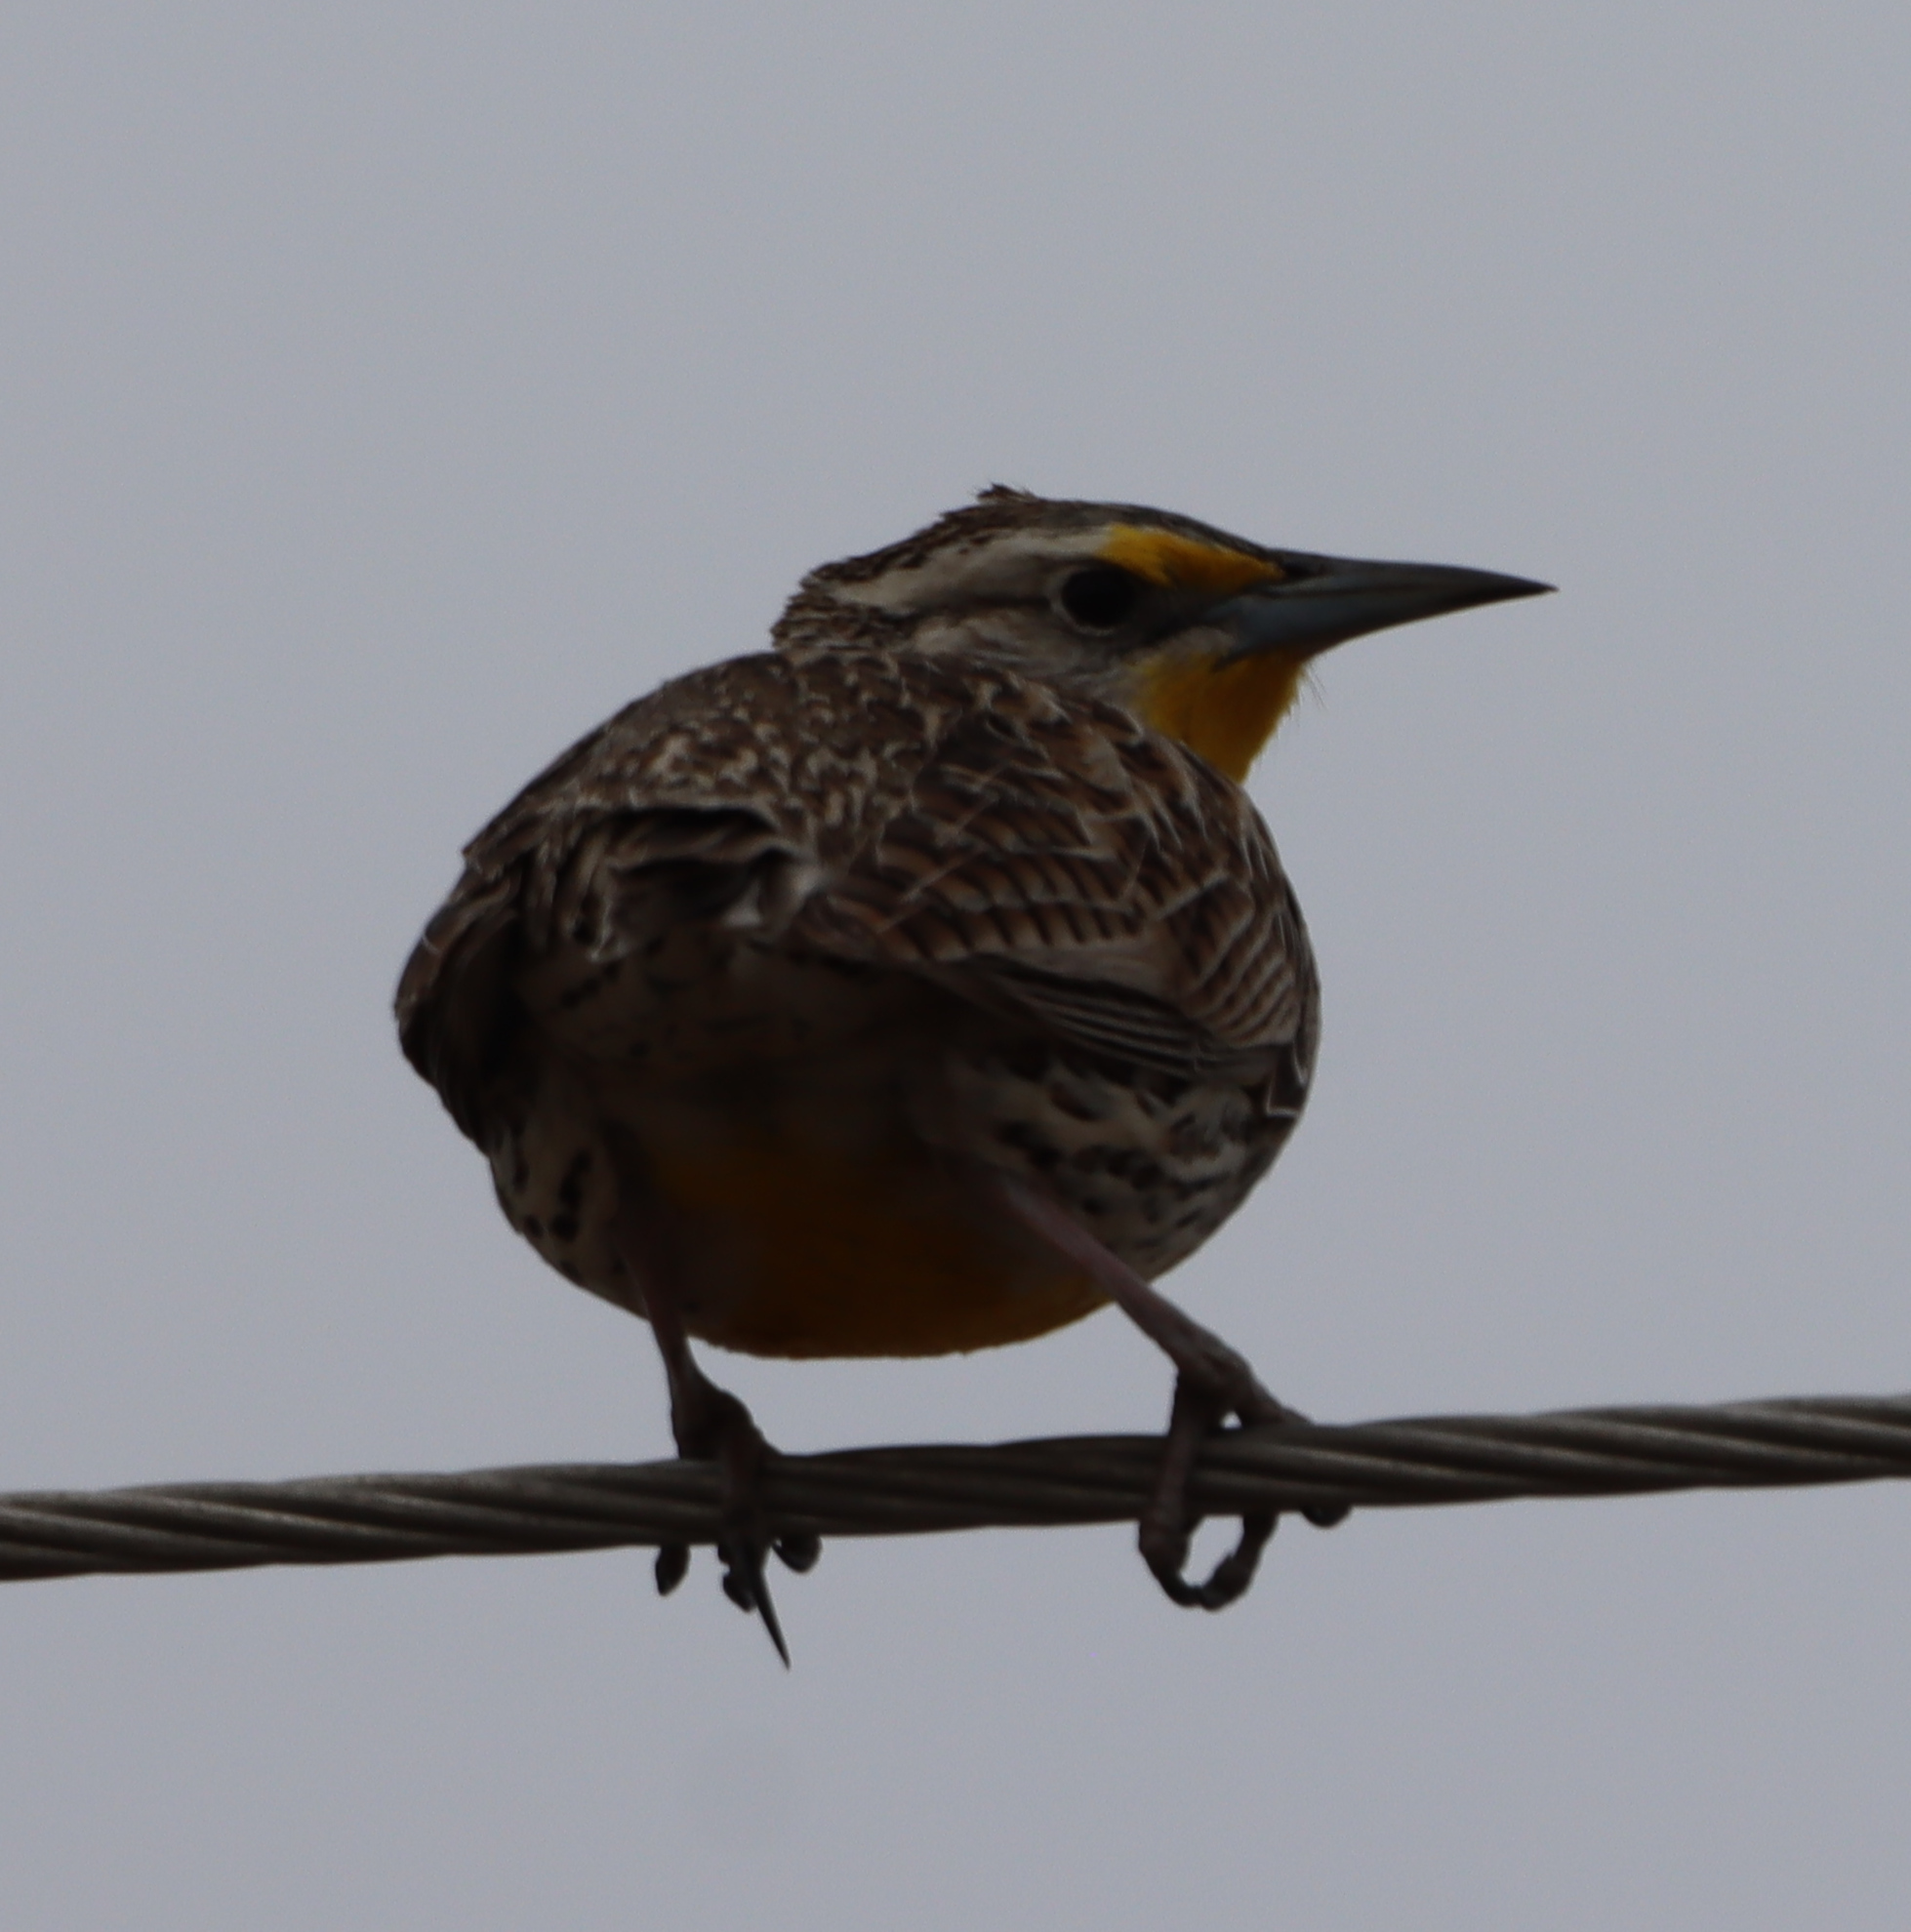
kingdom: Animalia
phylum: Chordata
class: Aves
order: Passeriformes
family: Icteridae
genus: Sturnella
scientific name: Sturnella neglecta
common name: Western meadowlark
